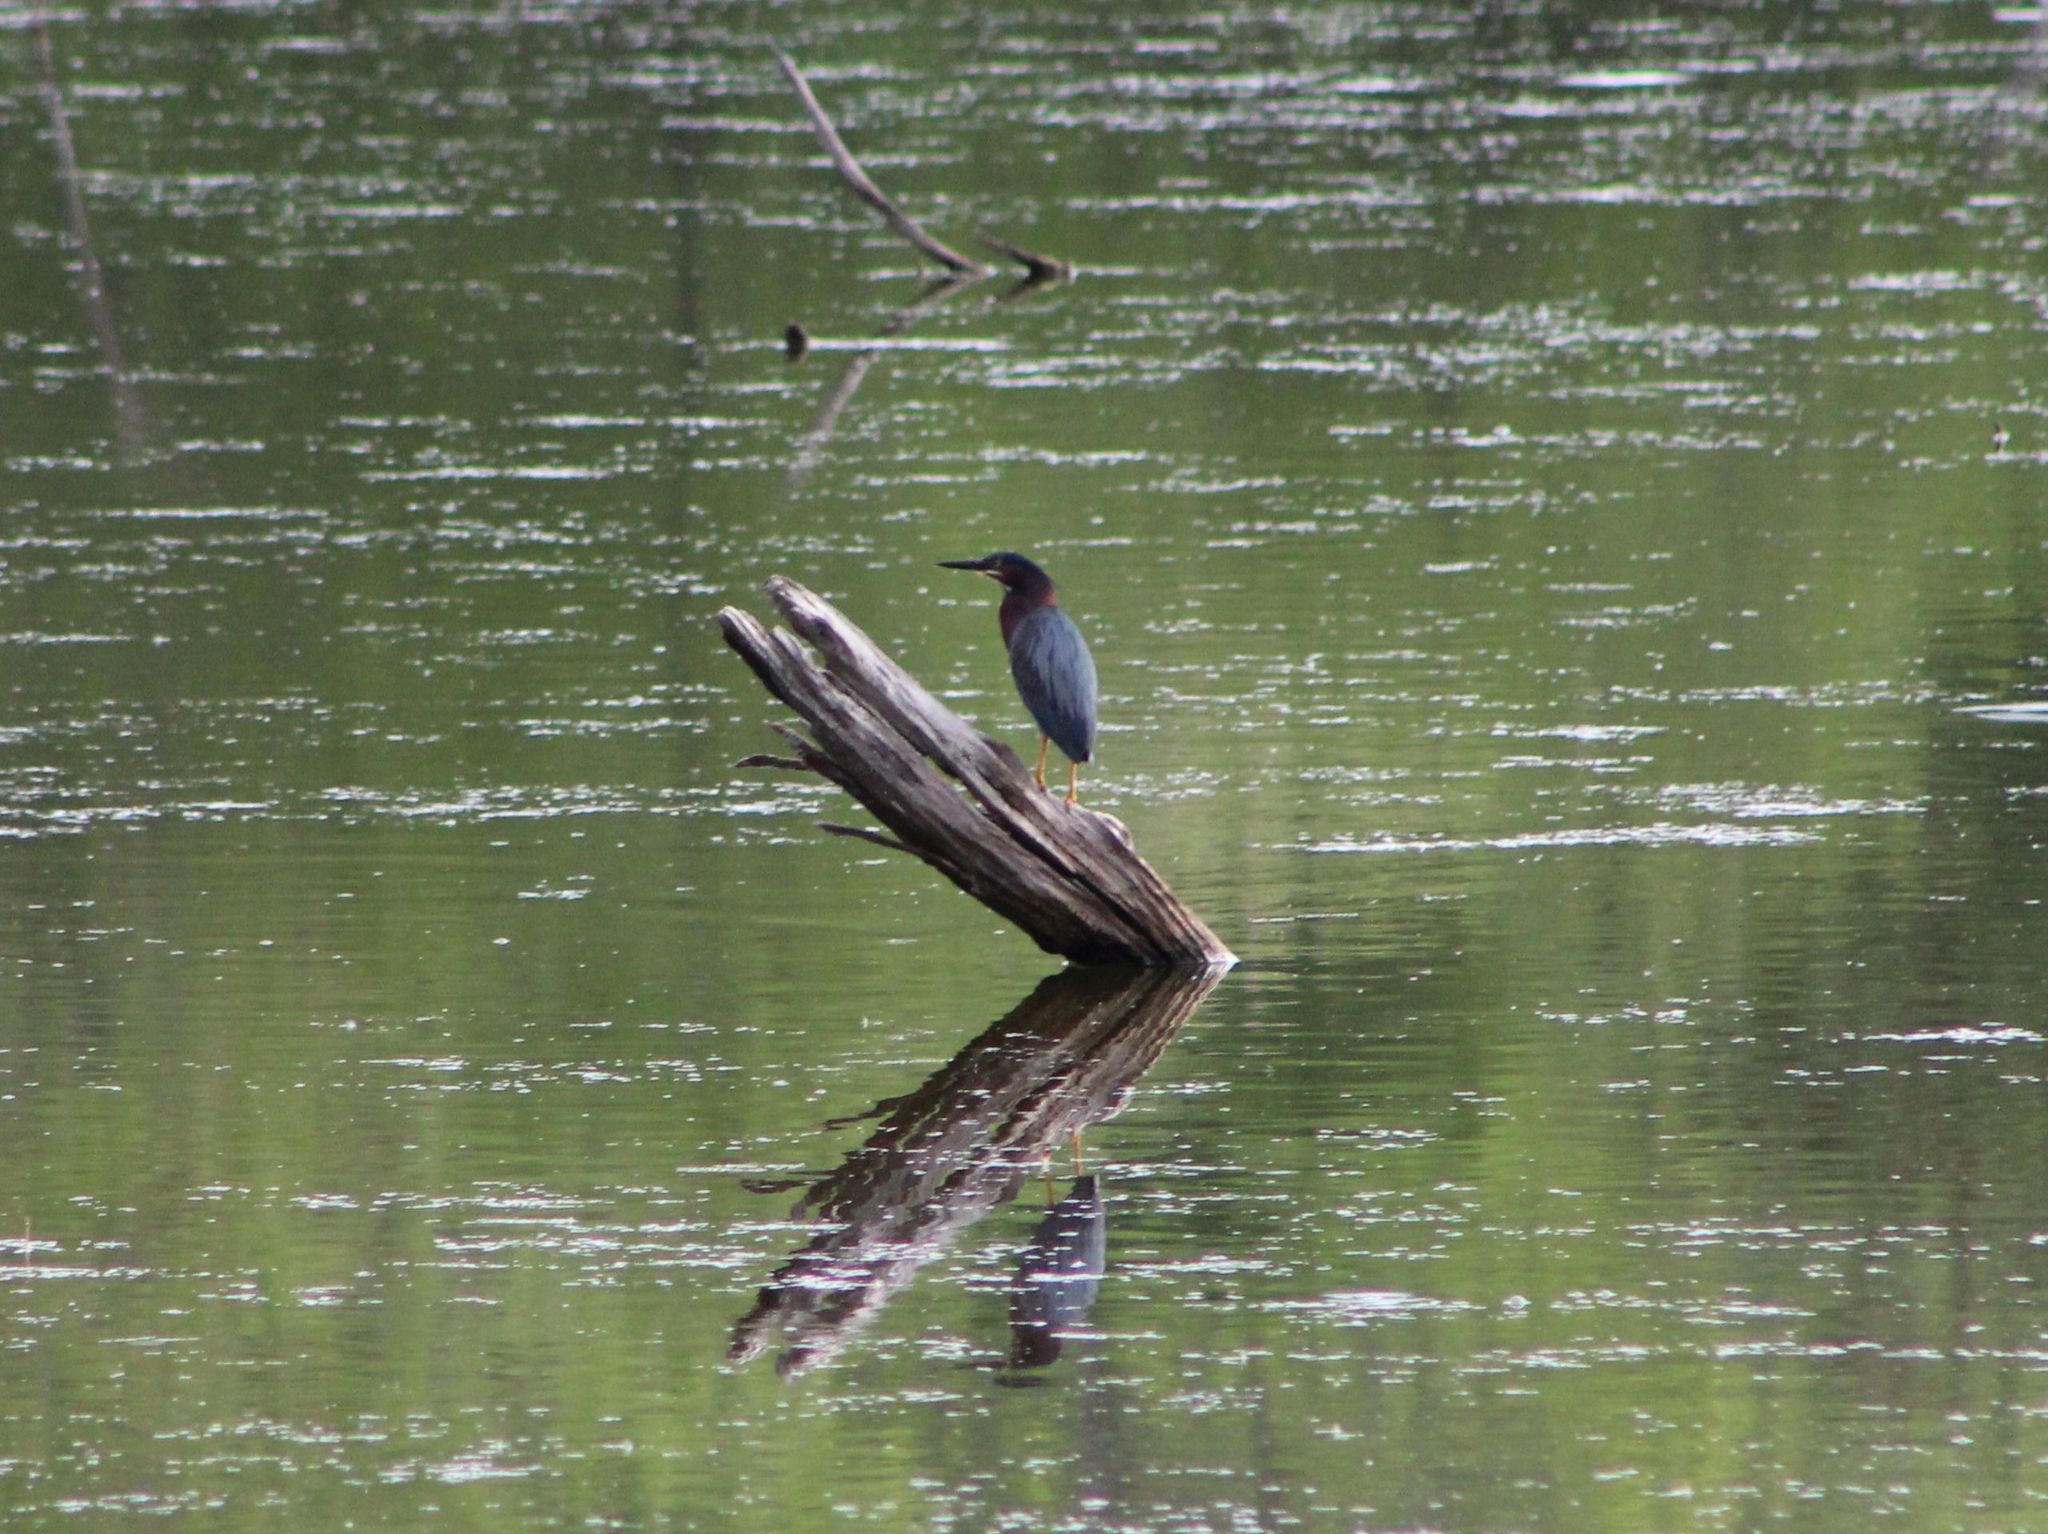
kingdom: Animalia
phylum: Chordata
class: Aves
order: Pelecaniformes
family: Ardeidae
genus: Butorides
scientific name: Butorides virescens
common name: Green heron
